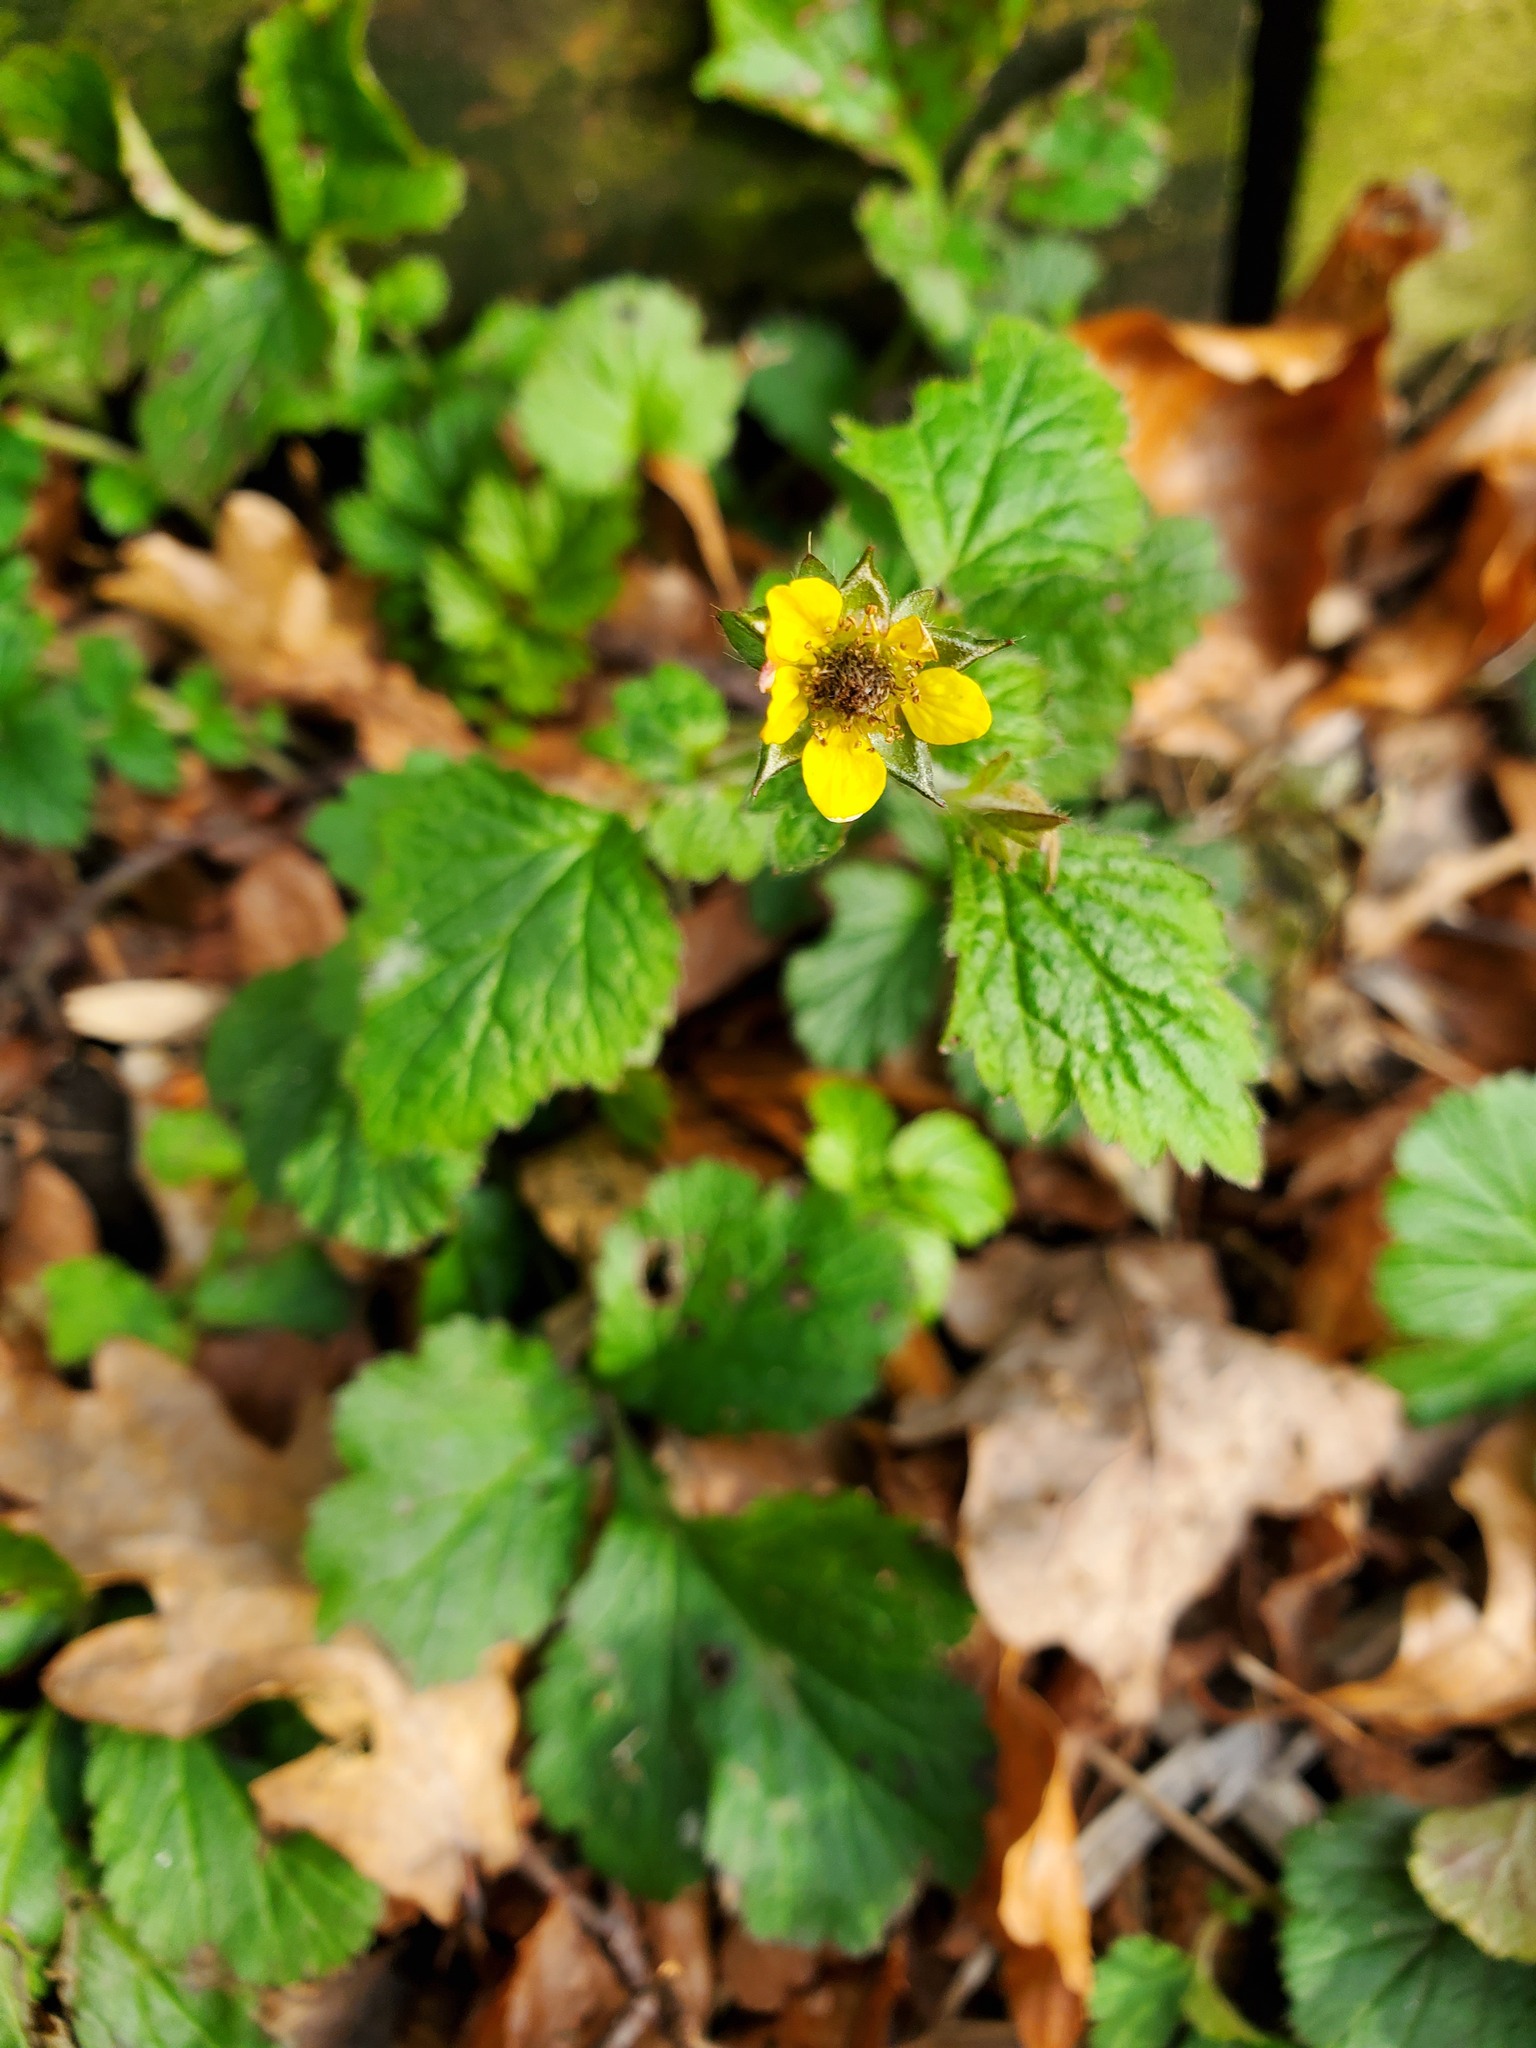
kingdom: Plantae
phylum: Tracheophyta
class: Magnoliopsida
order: Rosales
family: Rosaceae
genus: Geum
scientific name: Geum urbanum
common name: Wood avens
